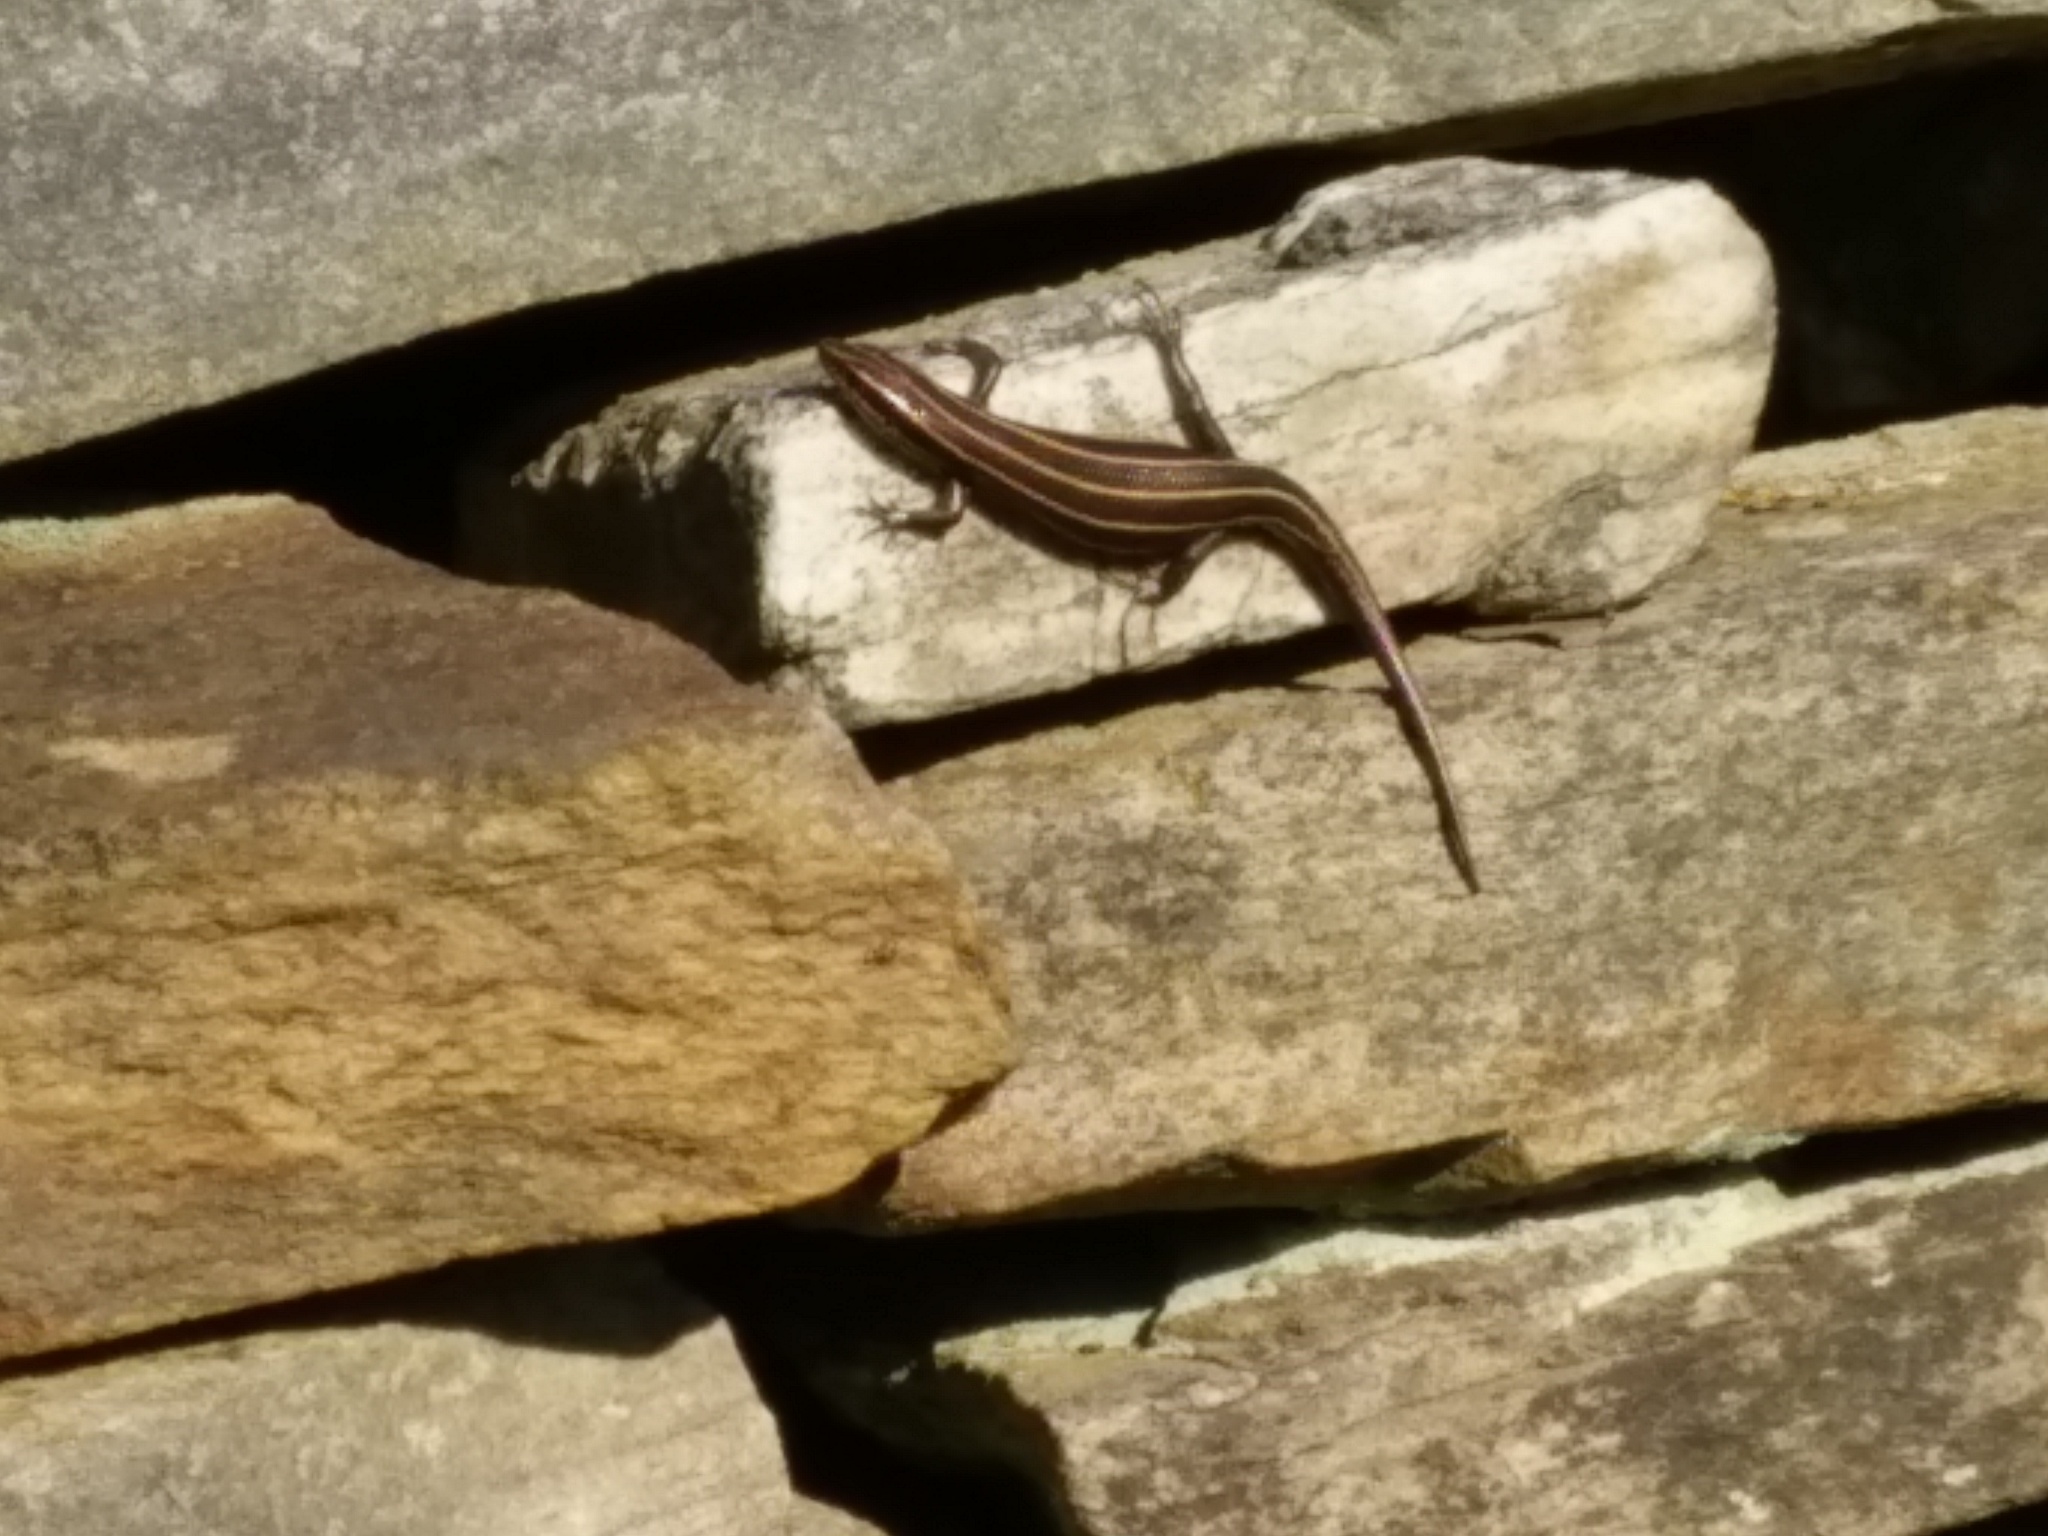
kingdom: Animalia
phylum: Chordata
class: Squamata
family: Scincidae
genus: Plestiodon
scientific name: Plestiodon fasciatus
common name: Five-lined skink
